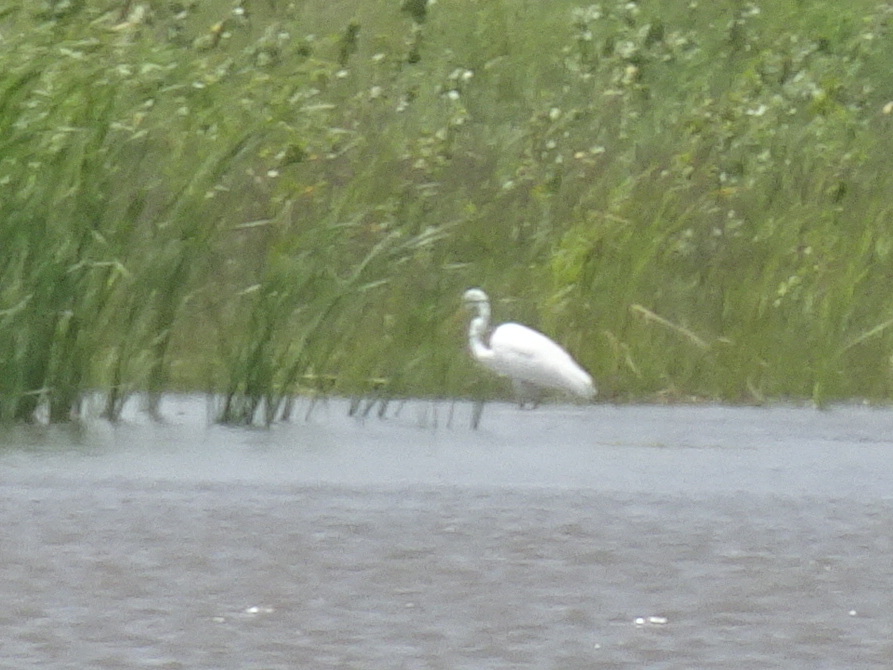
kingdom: Animalia
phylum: Chordata
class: Aves
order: Pelecaniformes
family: Ardeidae
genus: Ardea
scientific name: Ardea alba
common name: Great egret
